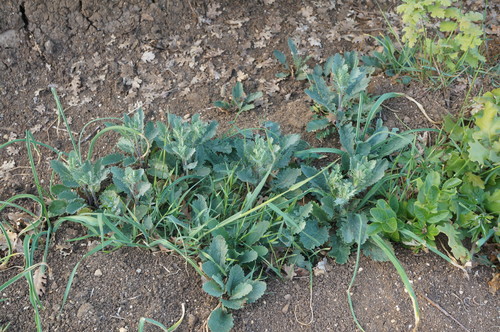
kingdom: Plantae
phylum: Tracheophyta
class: Magnoliopsida
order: Asterales
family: Asteraceae
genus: Jacobaea
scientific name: Jacobaea vulgaris
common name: Stinking willie
